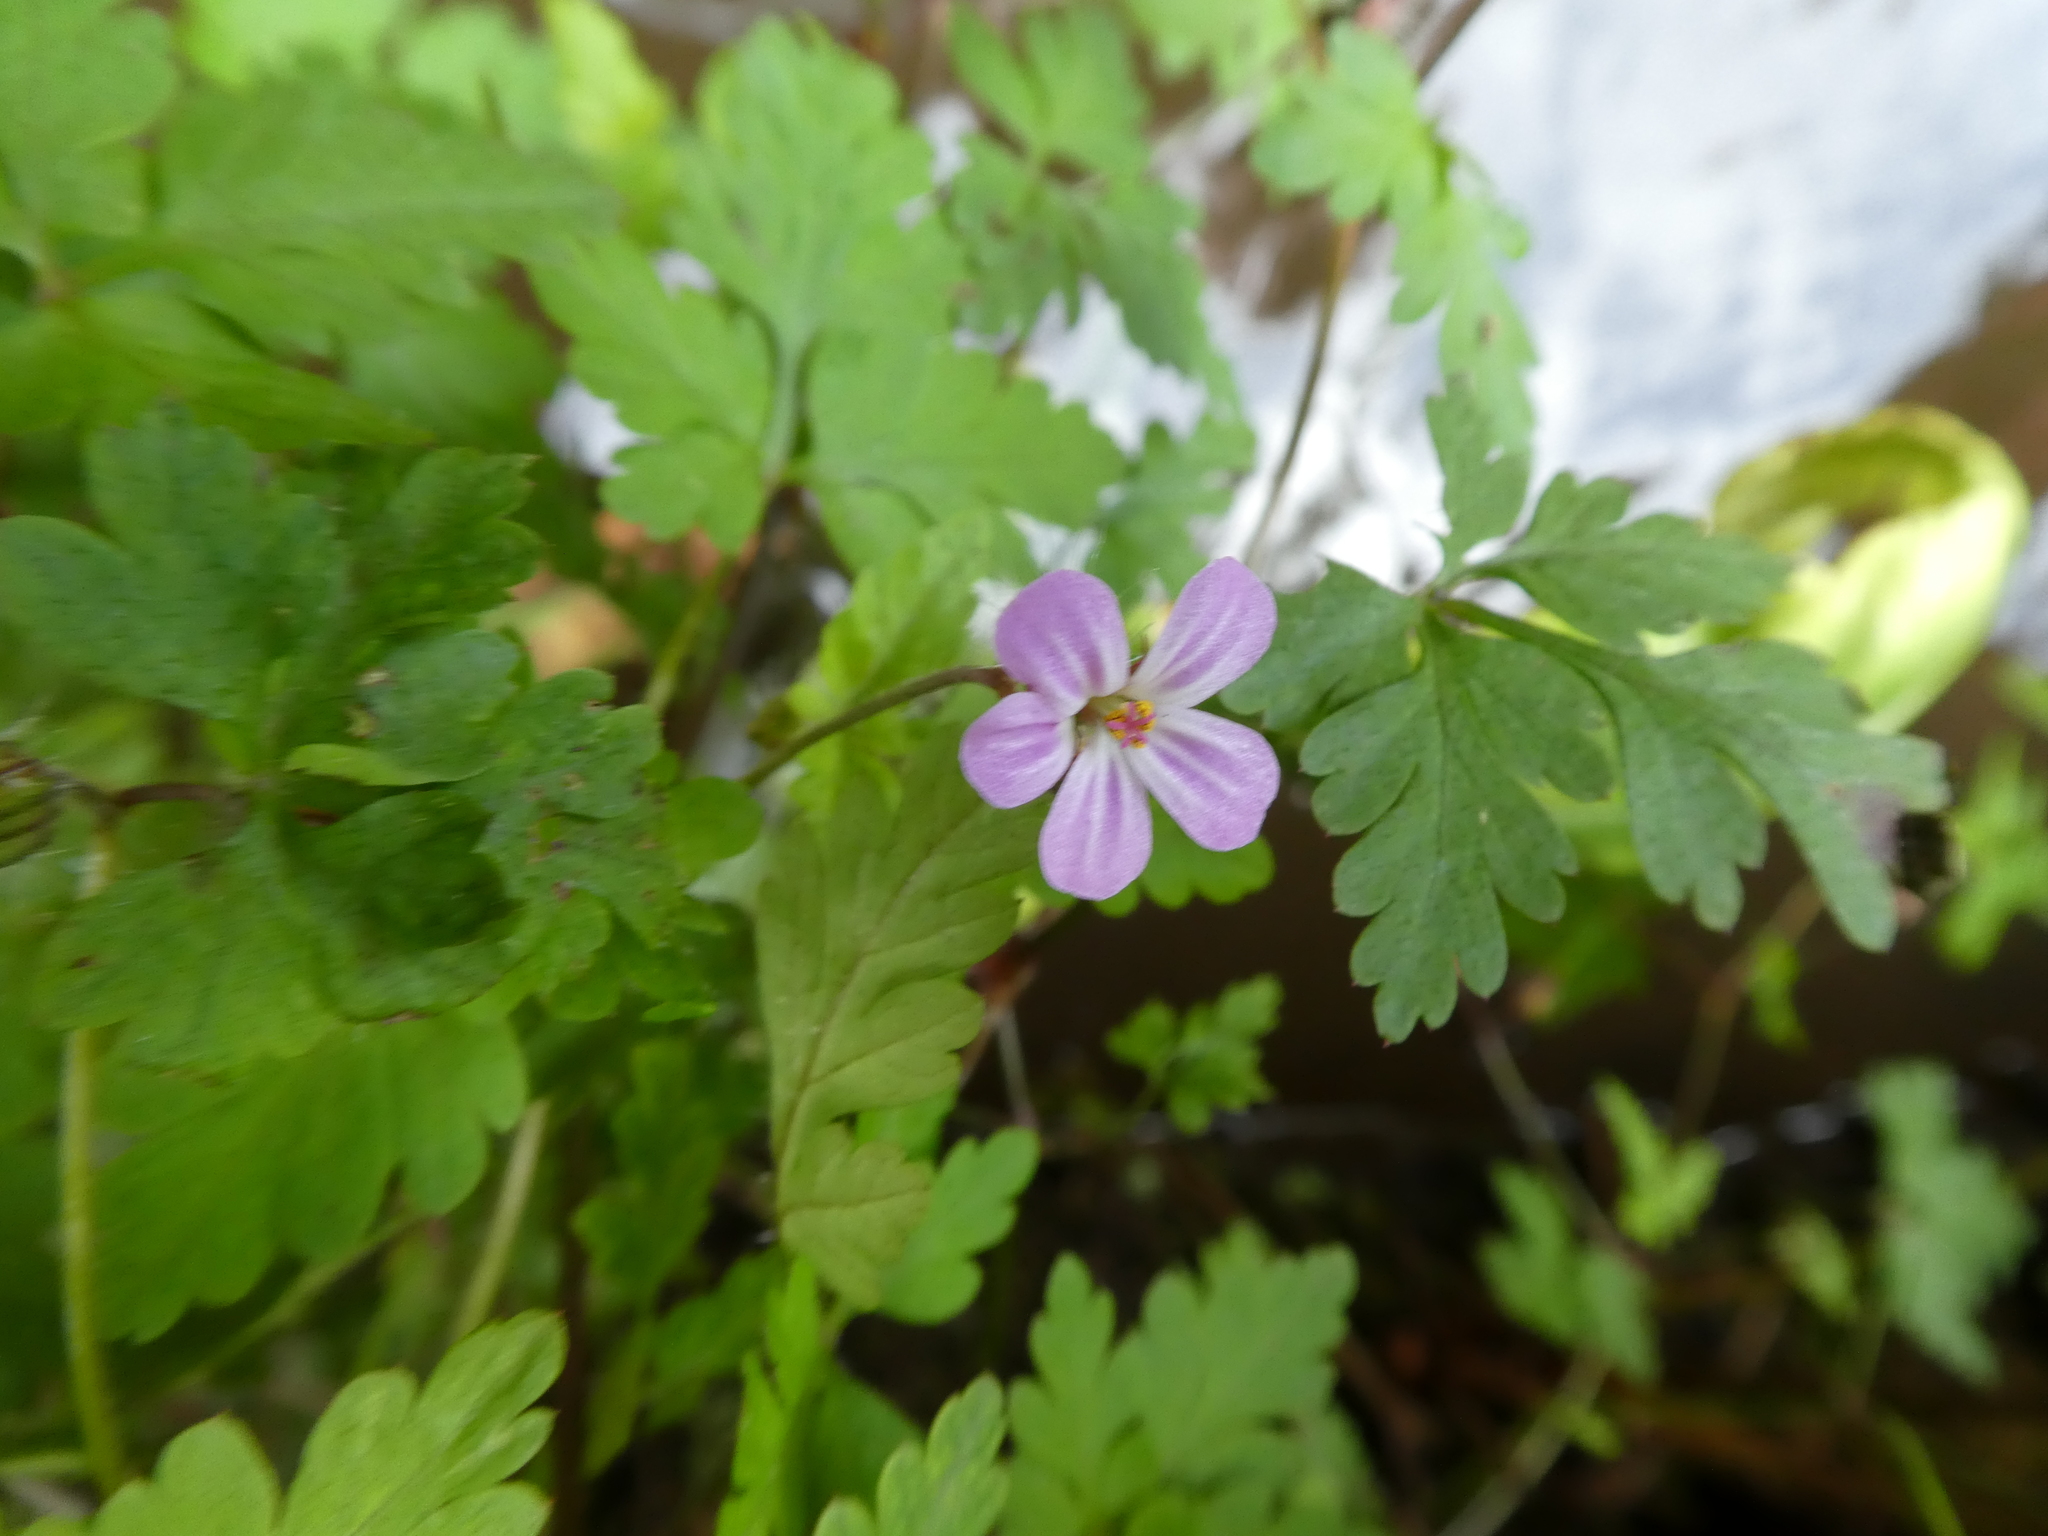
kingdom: Plantae
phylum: Tracheophyta
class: Magnoliopsida
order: Geraniales
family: Geraniaceae
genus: Geranium
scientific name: Geranium robertianum
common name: Herb-robert
